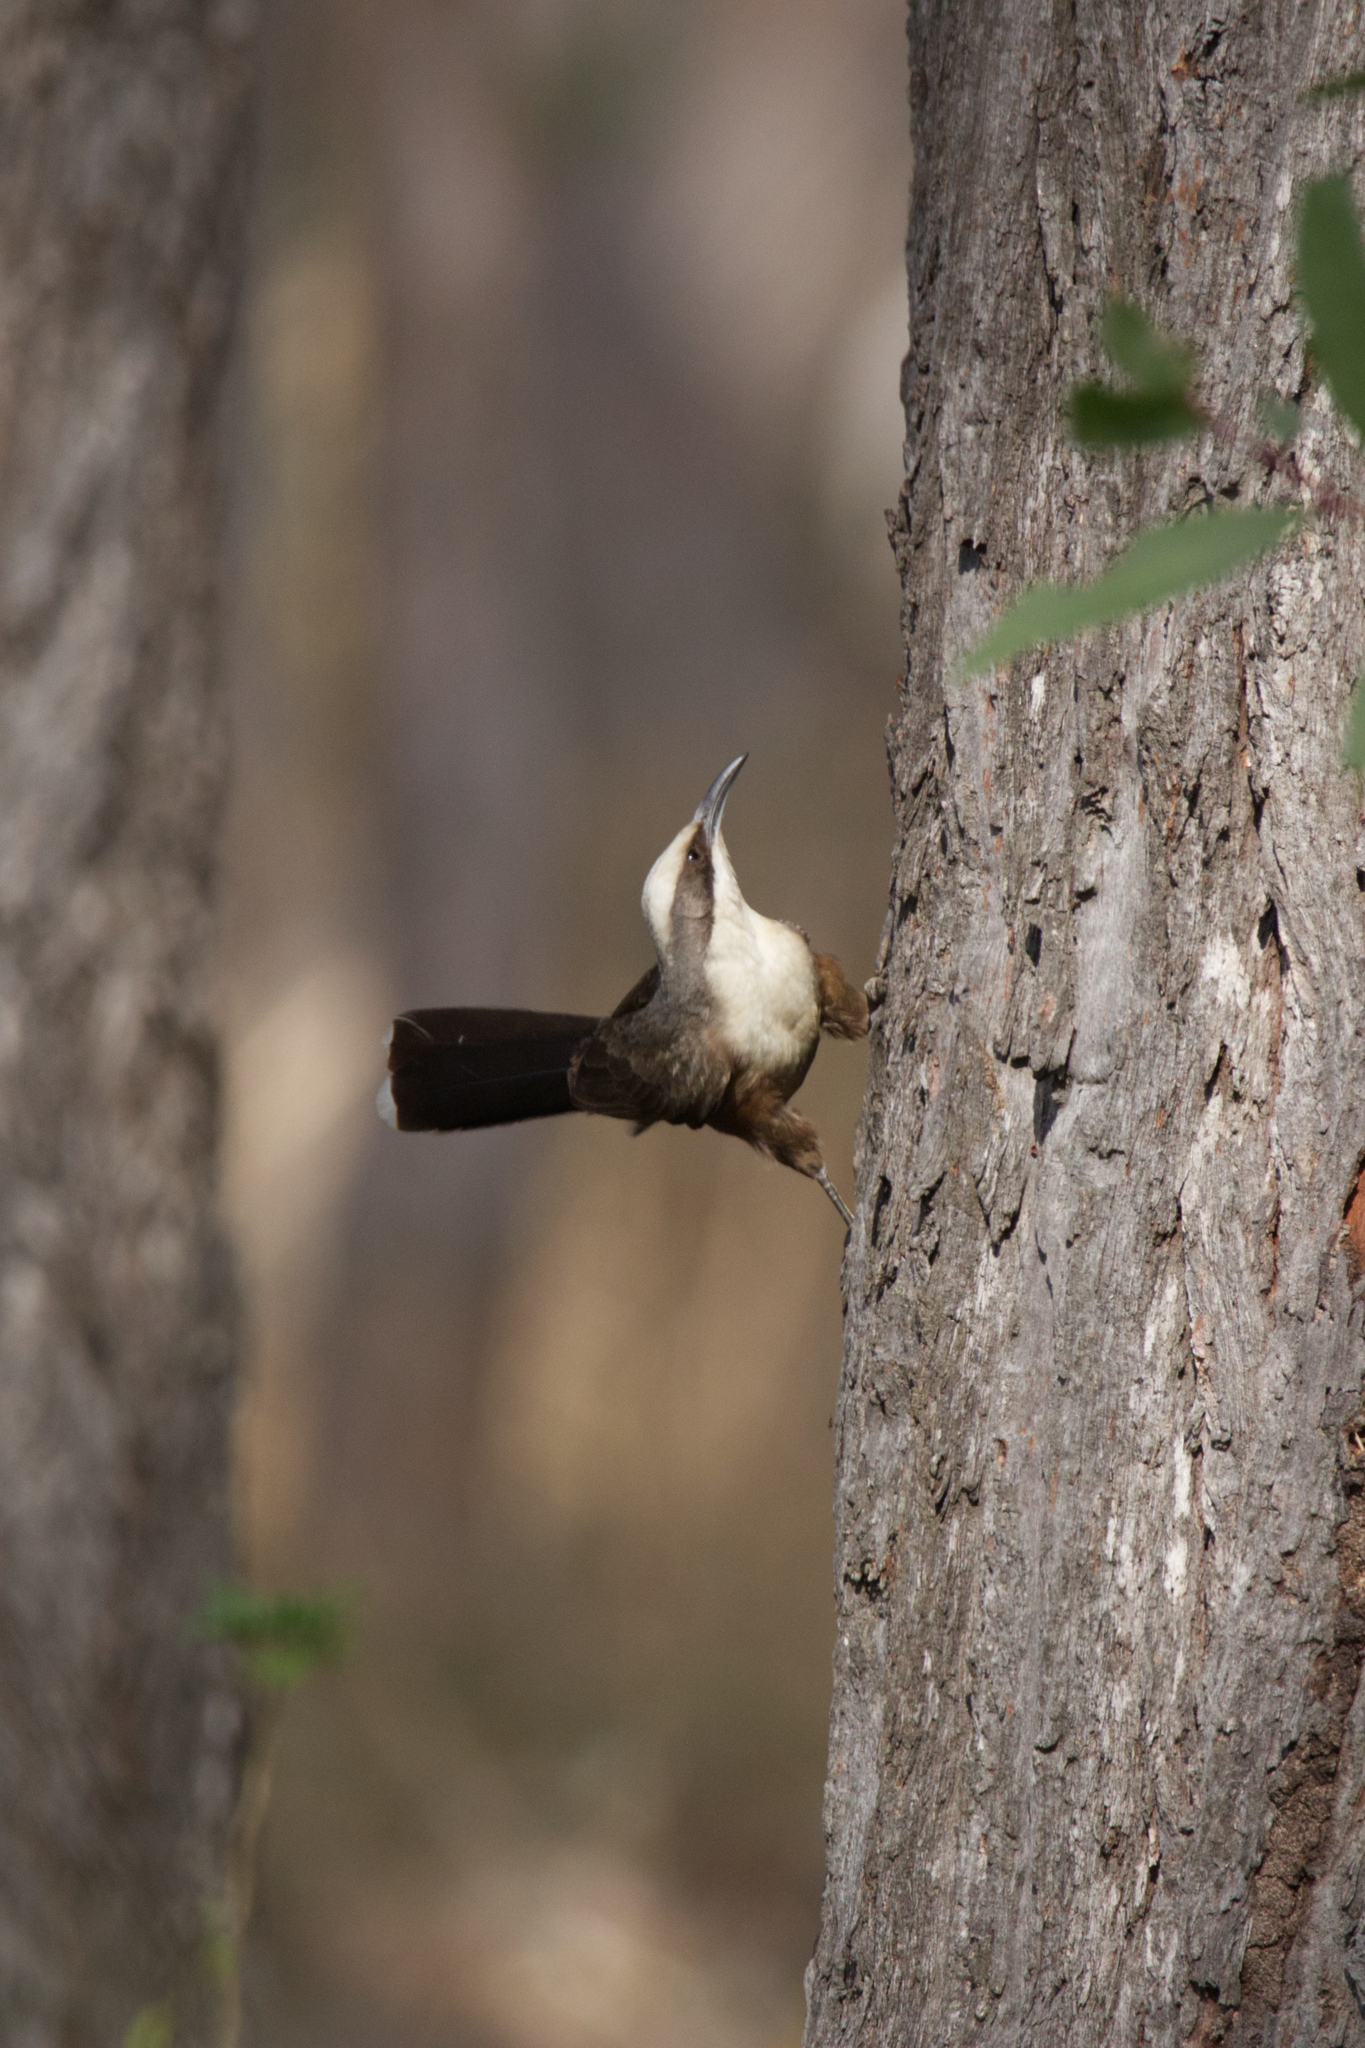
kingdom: Animalia
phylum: Chordata
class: Aves
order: Passeriformes
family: Pomatostomidae
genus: Pomatostomus
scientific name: Pomatostomus temporalis
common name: Grey-crowned babbler
